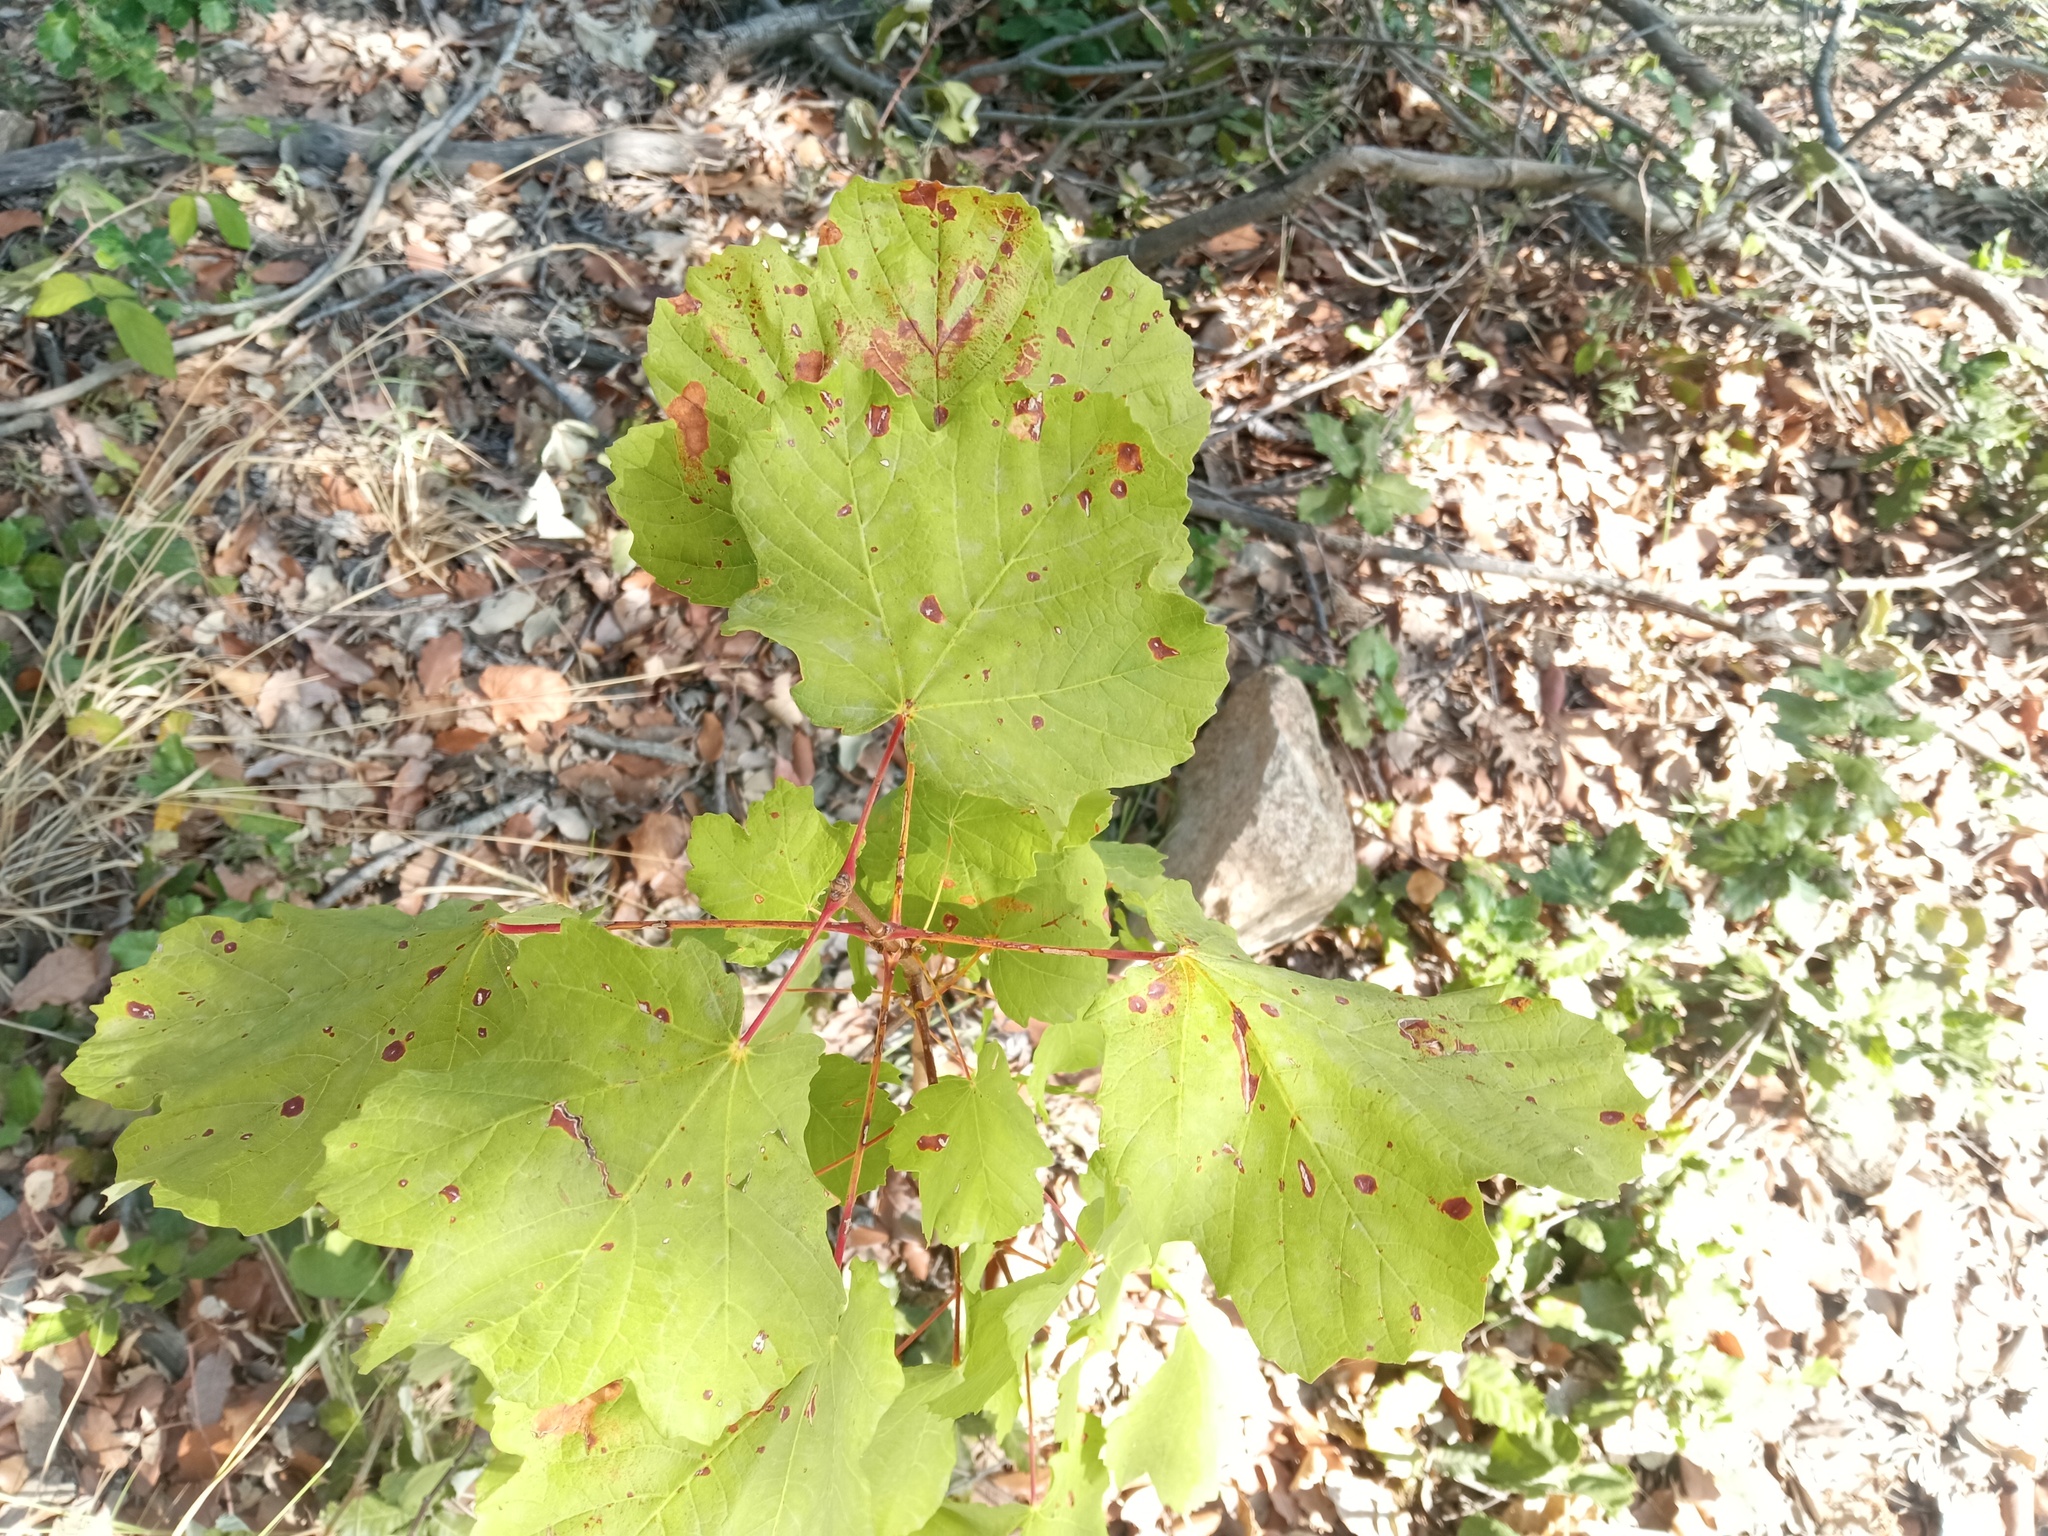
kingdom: Plantae
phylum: Tracheophyta
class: Magnoliopsida
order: Sapindales
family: Sapindaceae
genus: Acer
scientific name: Acer opalus
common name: Italian maple
